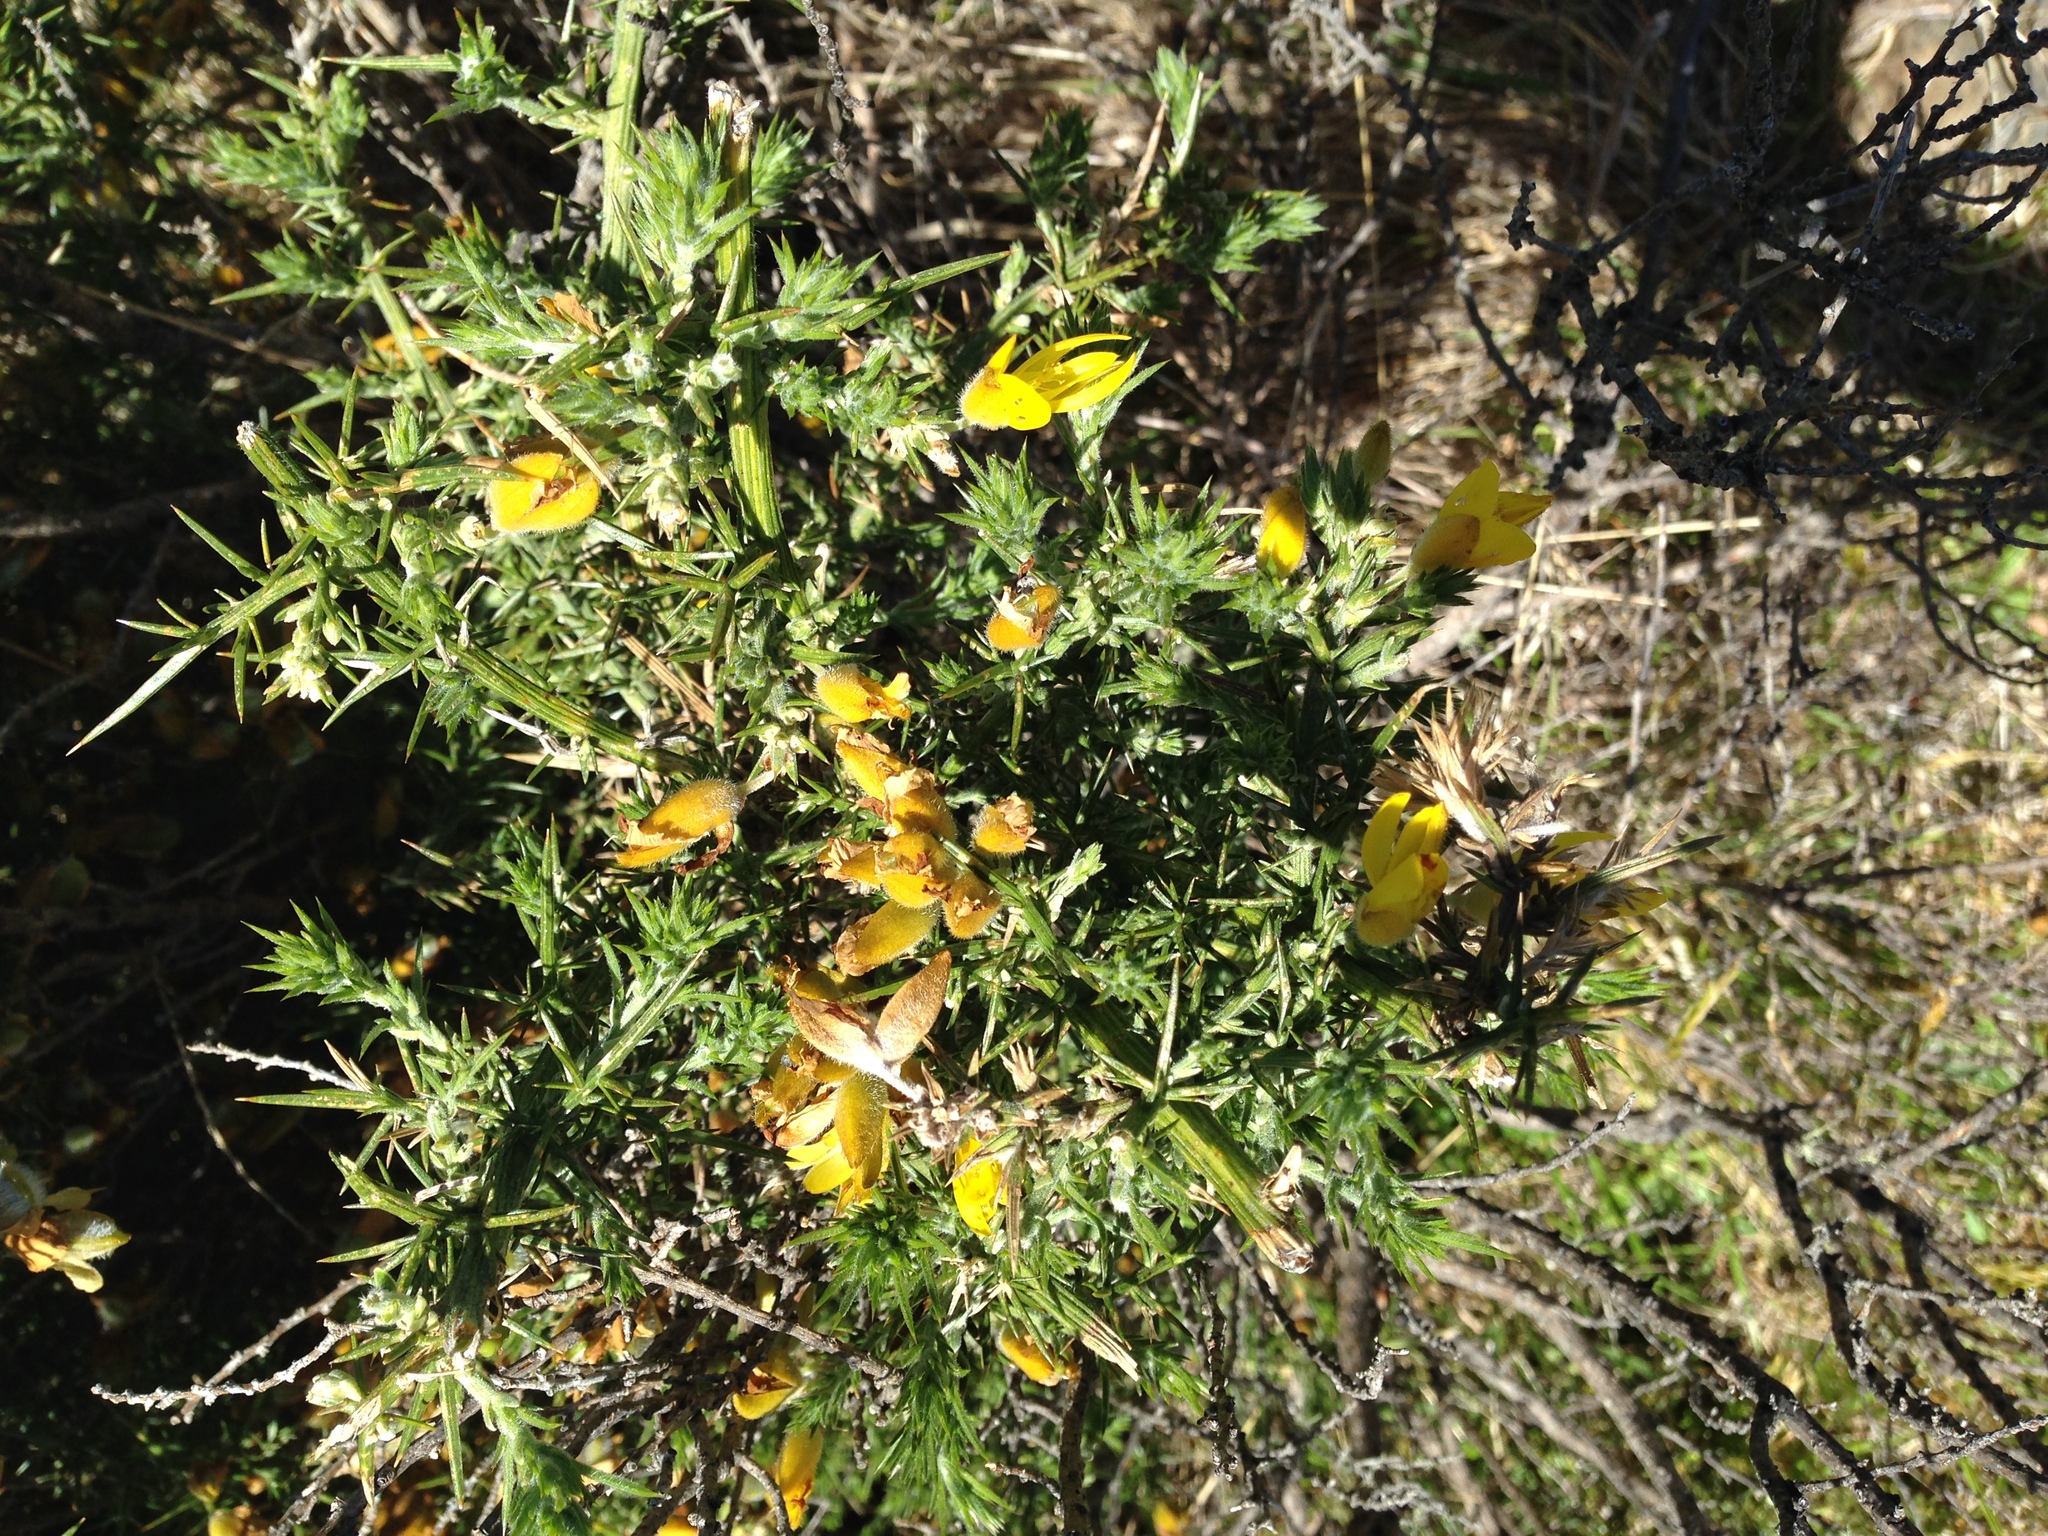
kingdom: Plantae
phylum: Tracheophyta
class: Magnoliopsida
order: Fabales
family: Fabaceae
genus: Ulex
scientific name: Ulex europaeus
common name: Common gorse
